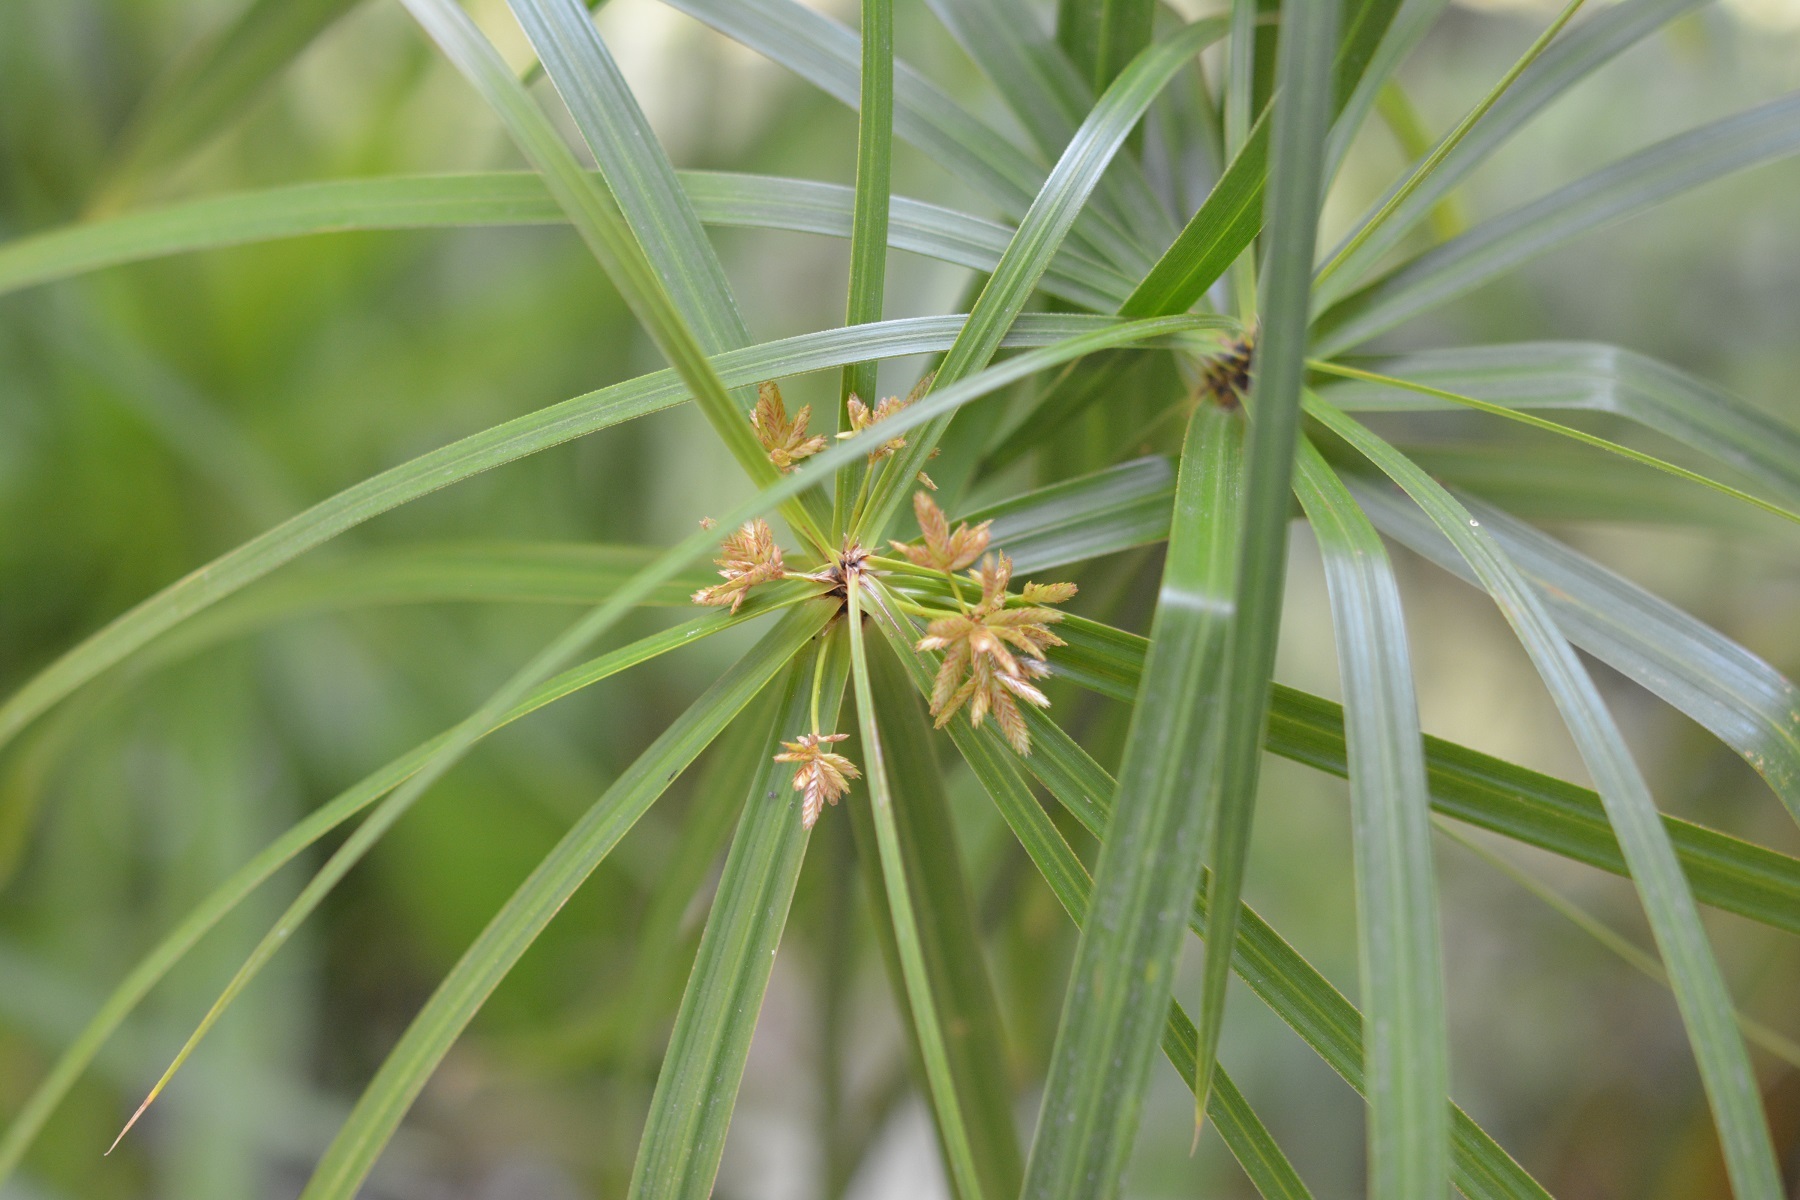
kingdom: Plantae
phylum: Tracheophyta
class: Liliopsida
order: Poales
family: Cyperaceae
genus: Cyperus
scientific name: Cyperus alternifolius
